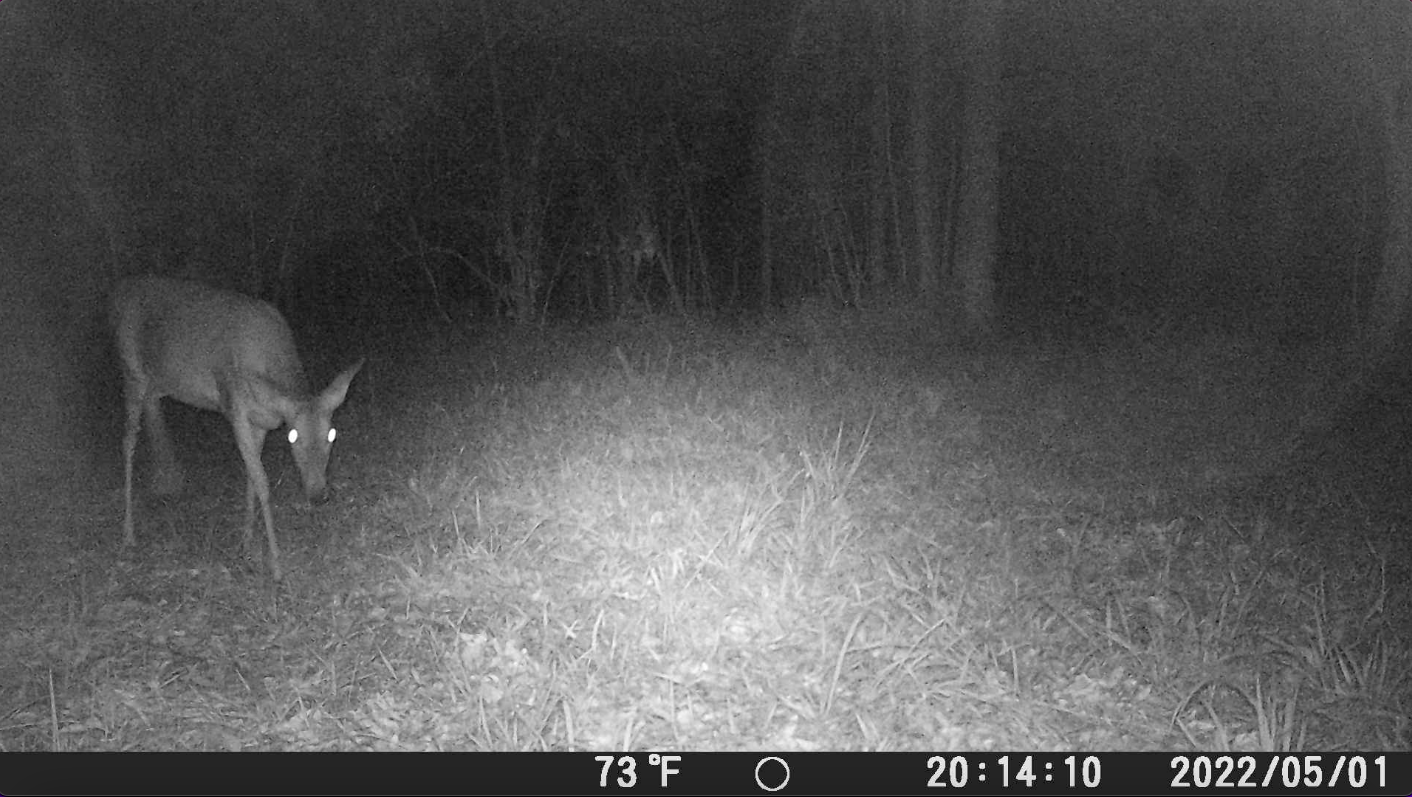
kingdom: Animalia
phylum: Chordata
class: Mammalia
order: Artiodactyla
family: Cervidae
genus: Odocoileus
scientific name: Odocoileus virginianus
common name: White-tailed deer
